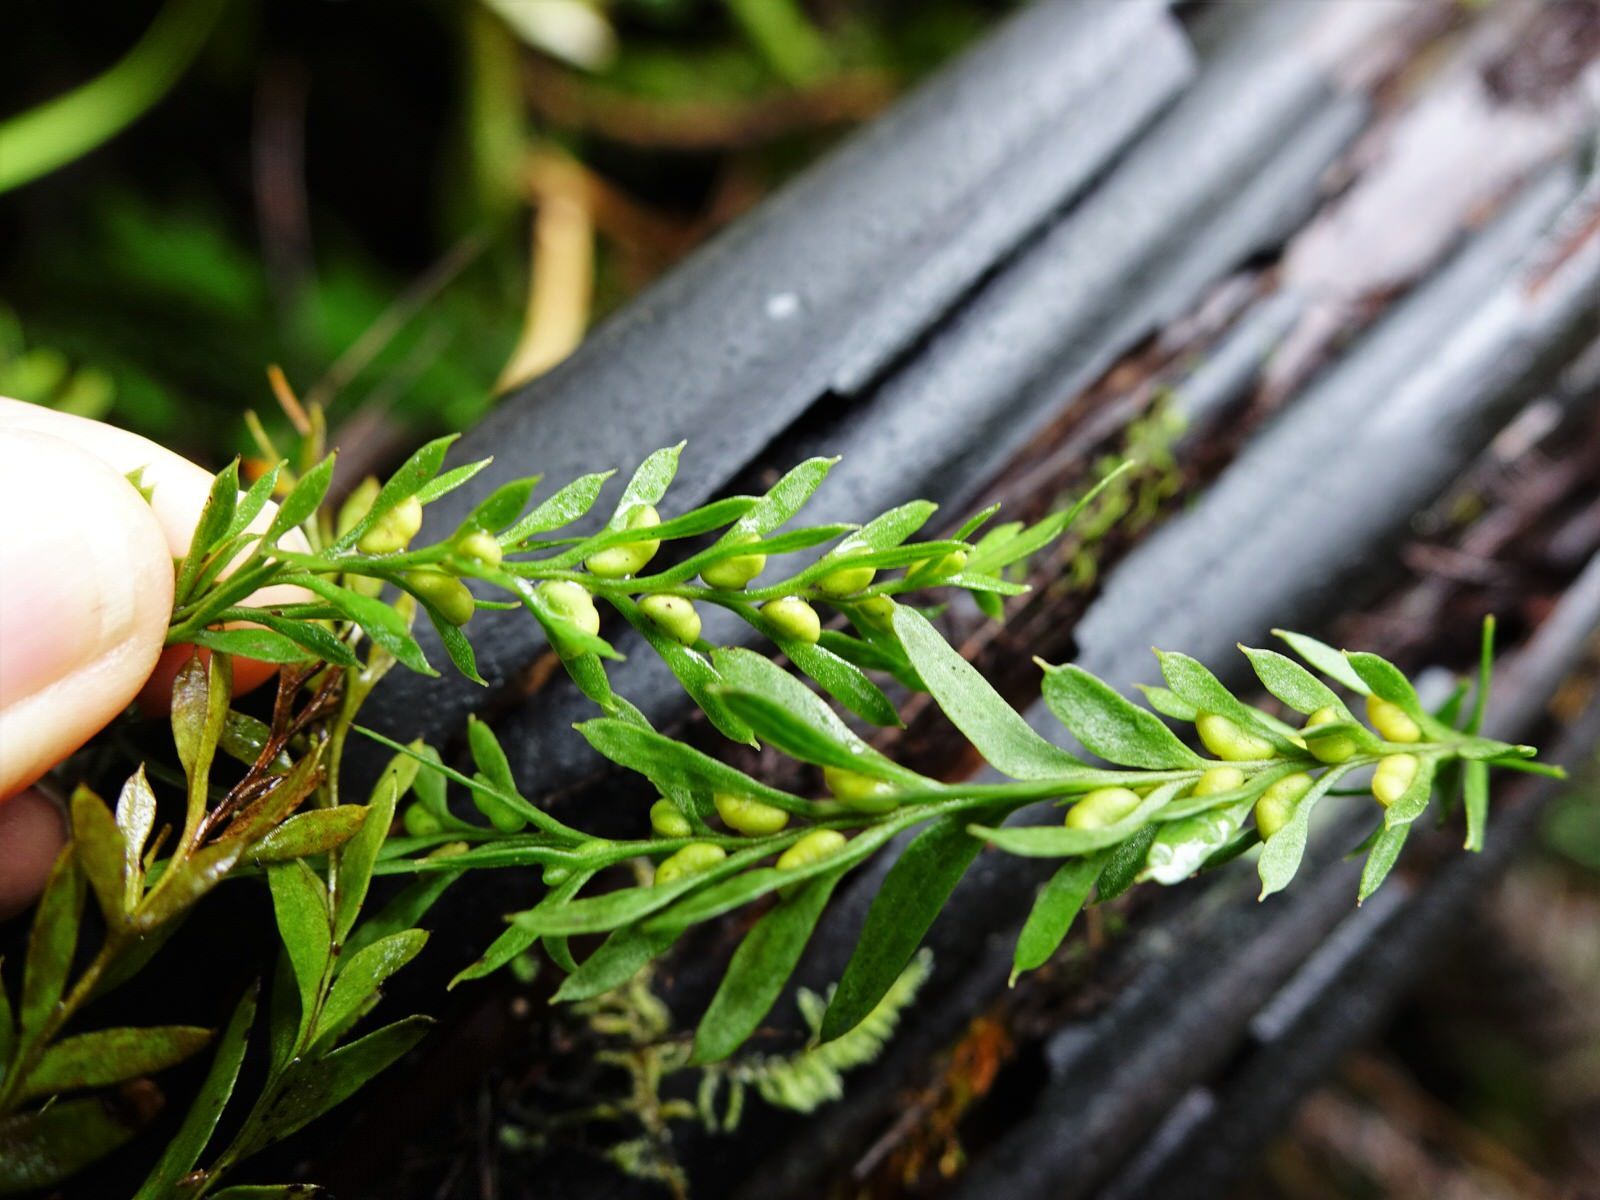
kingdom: Plantae
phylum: Tracheophyta
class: Polypodiopsida
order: Psilotales
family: Psilotaceae
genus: Tmesipteris
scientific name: Tmesipteris elongata
